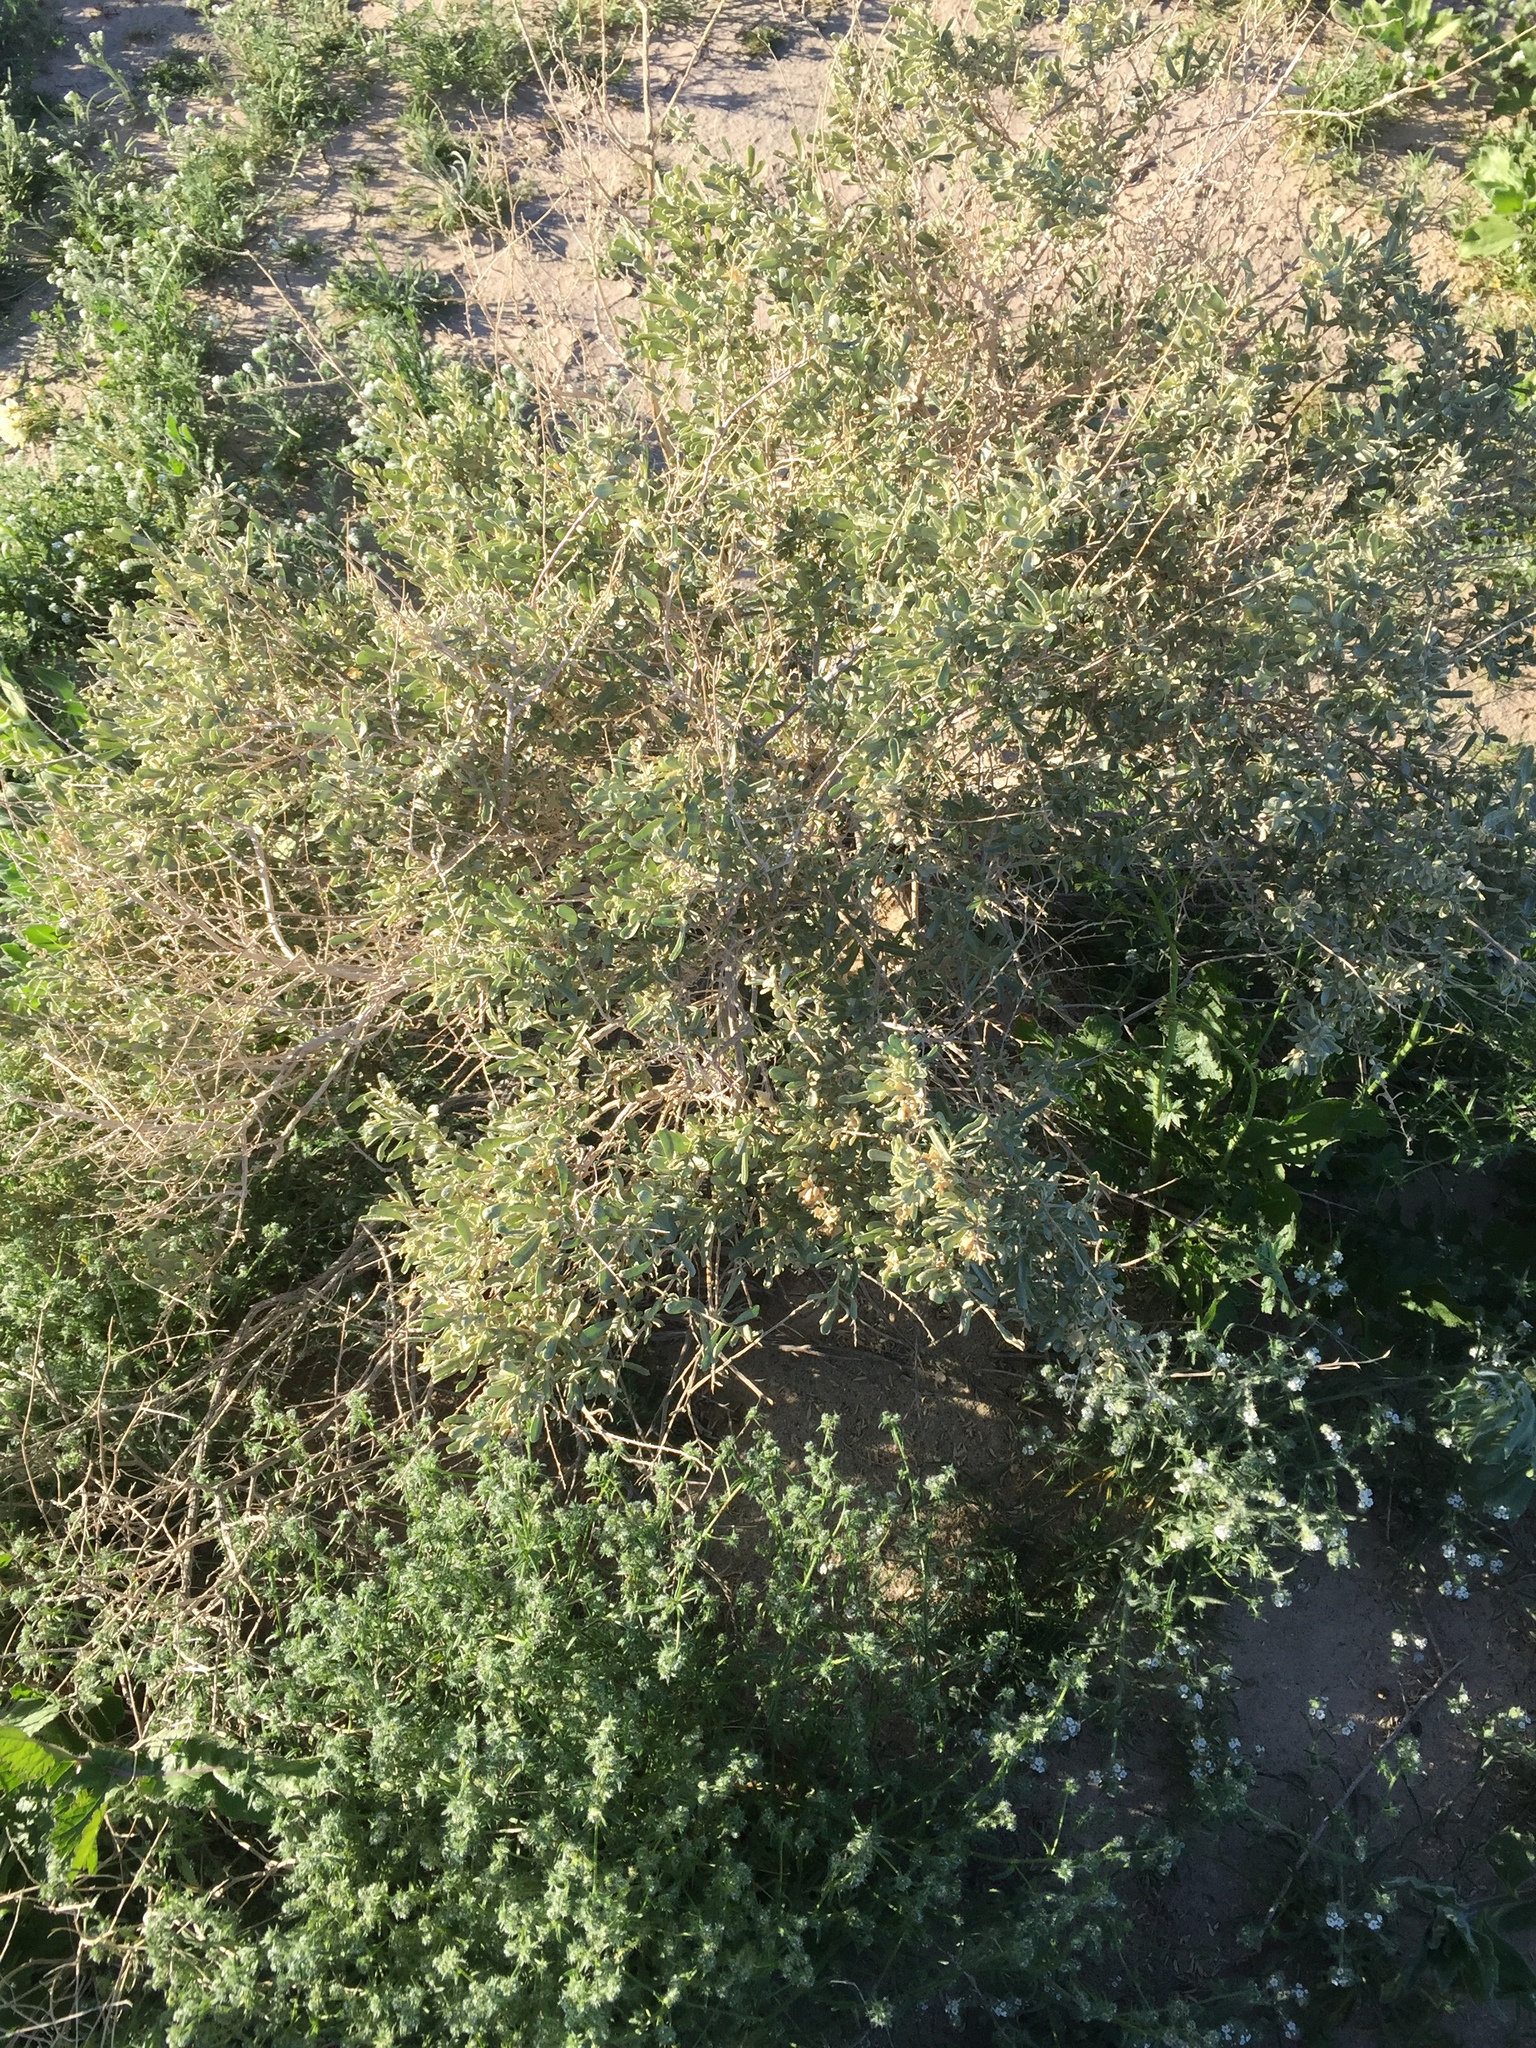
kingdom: Plantae
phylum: Tracheophyta
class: Magnoliopsida
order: Caryophyllales
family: Amaranthaceae
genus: Atriplex
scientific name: Atriplex canescens
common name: Four-wing saltbush
